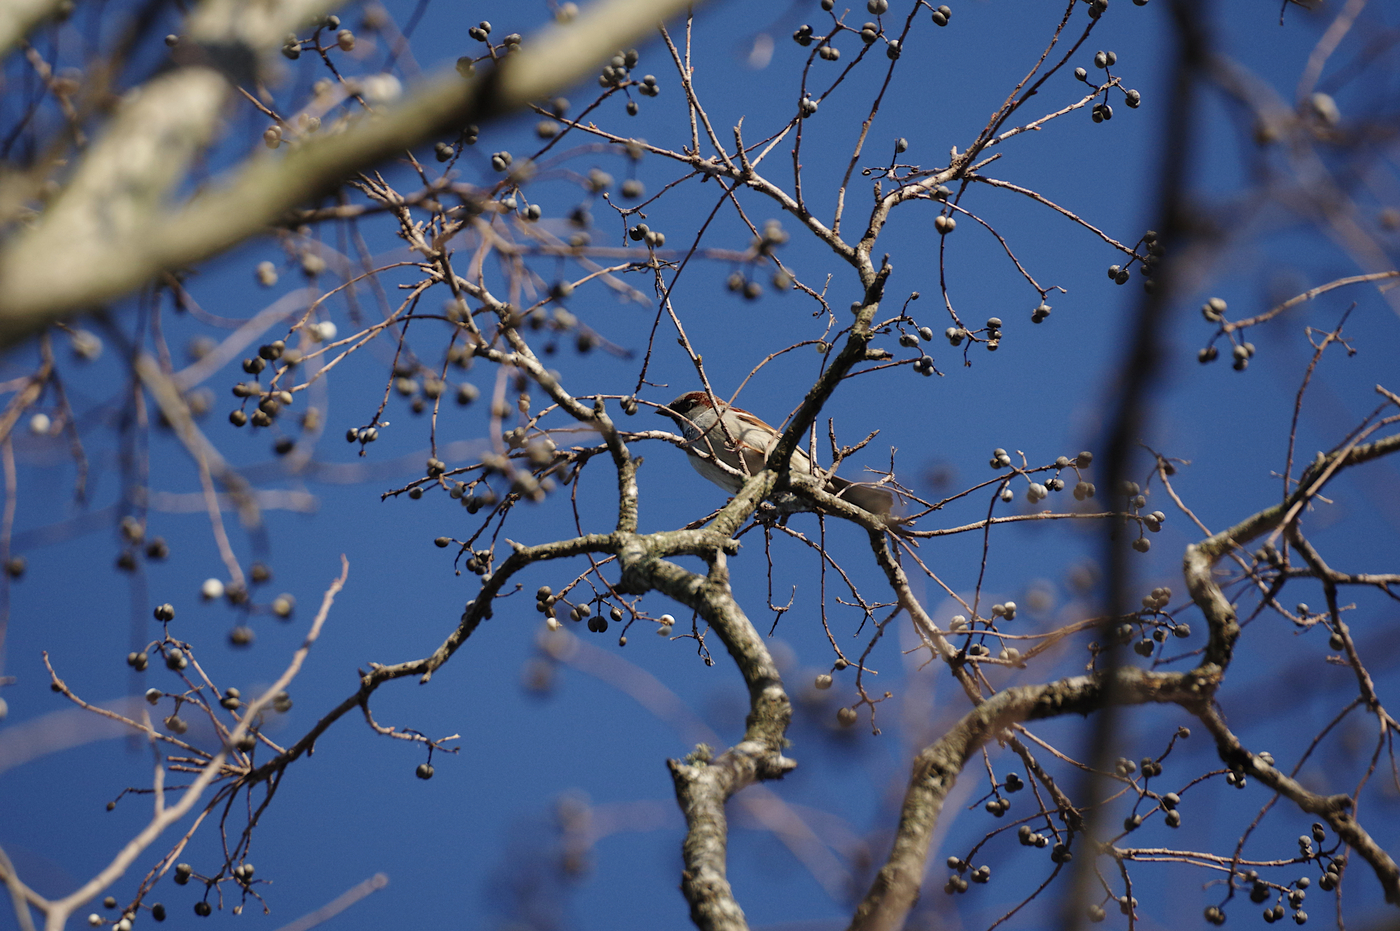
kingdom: Animalia
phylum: Chordata
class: Aves
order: Passeriformes
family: Passeridae
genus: Passer
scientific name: Passer domesticus
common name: House sparrow
